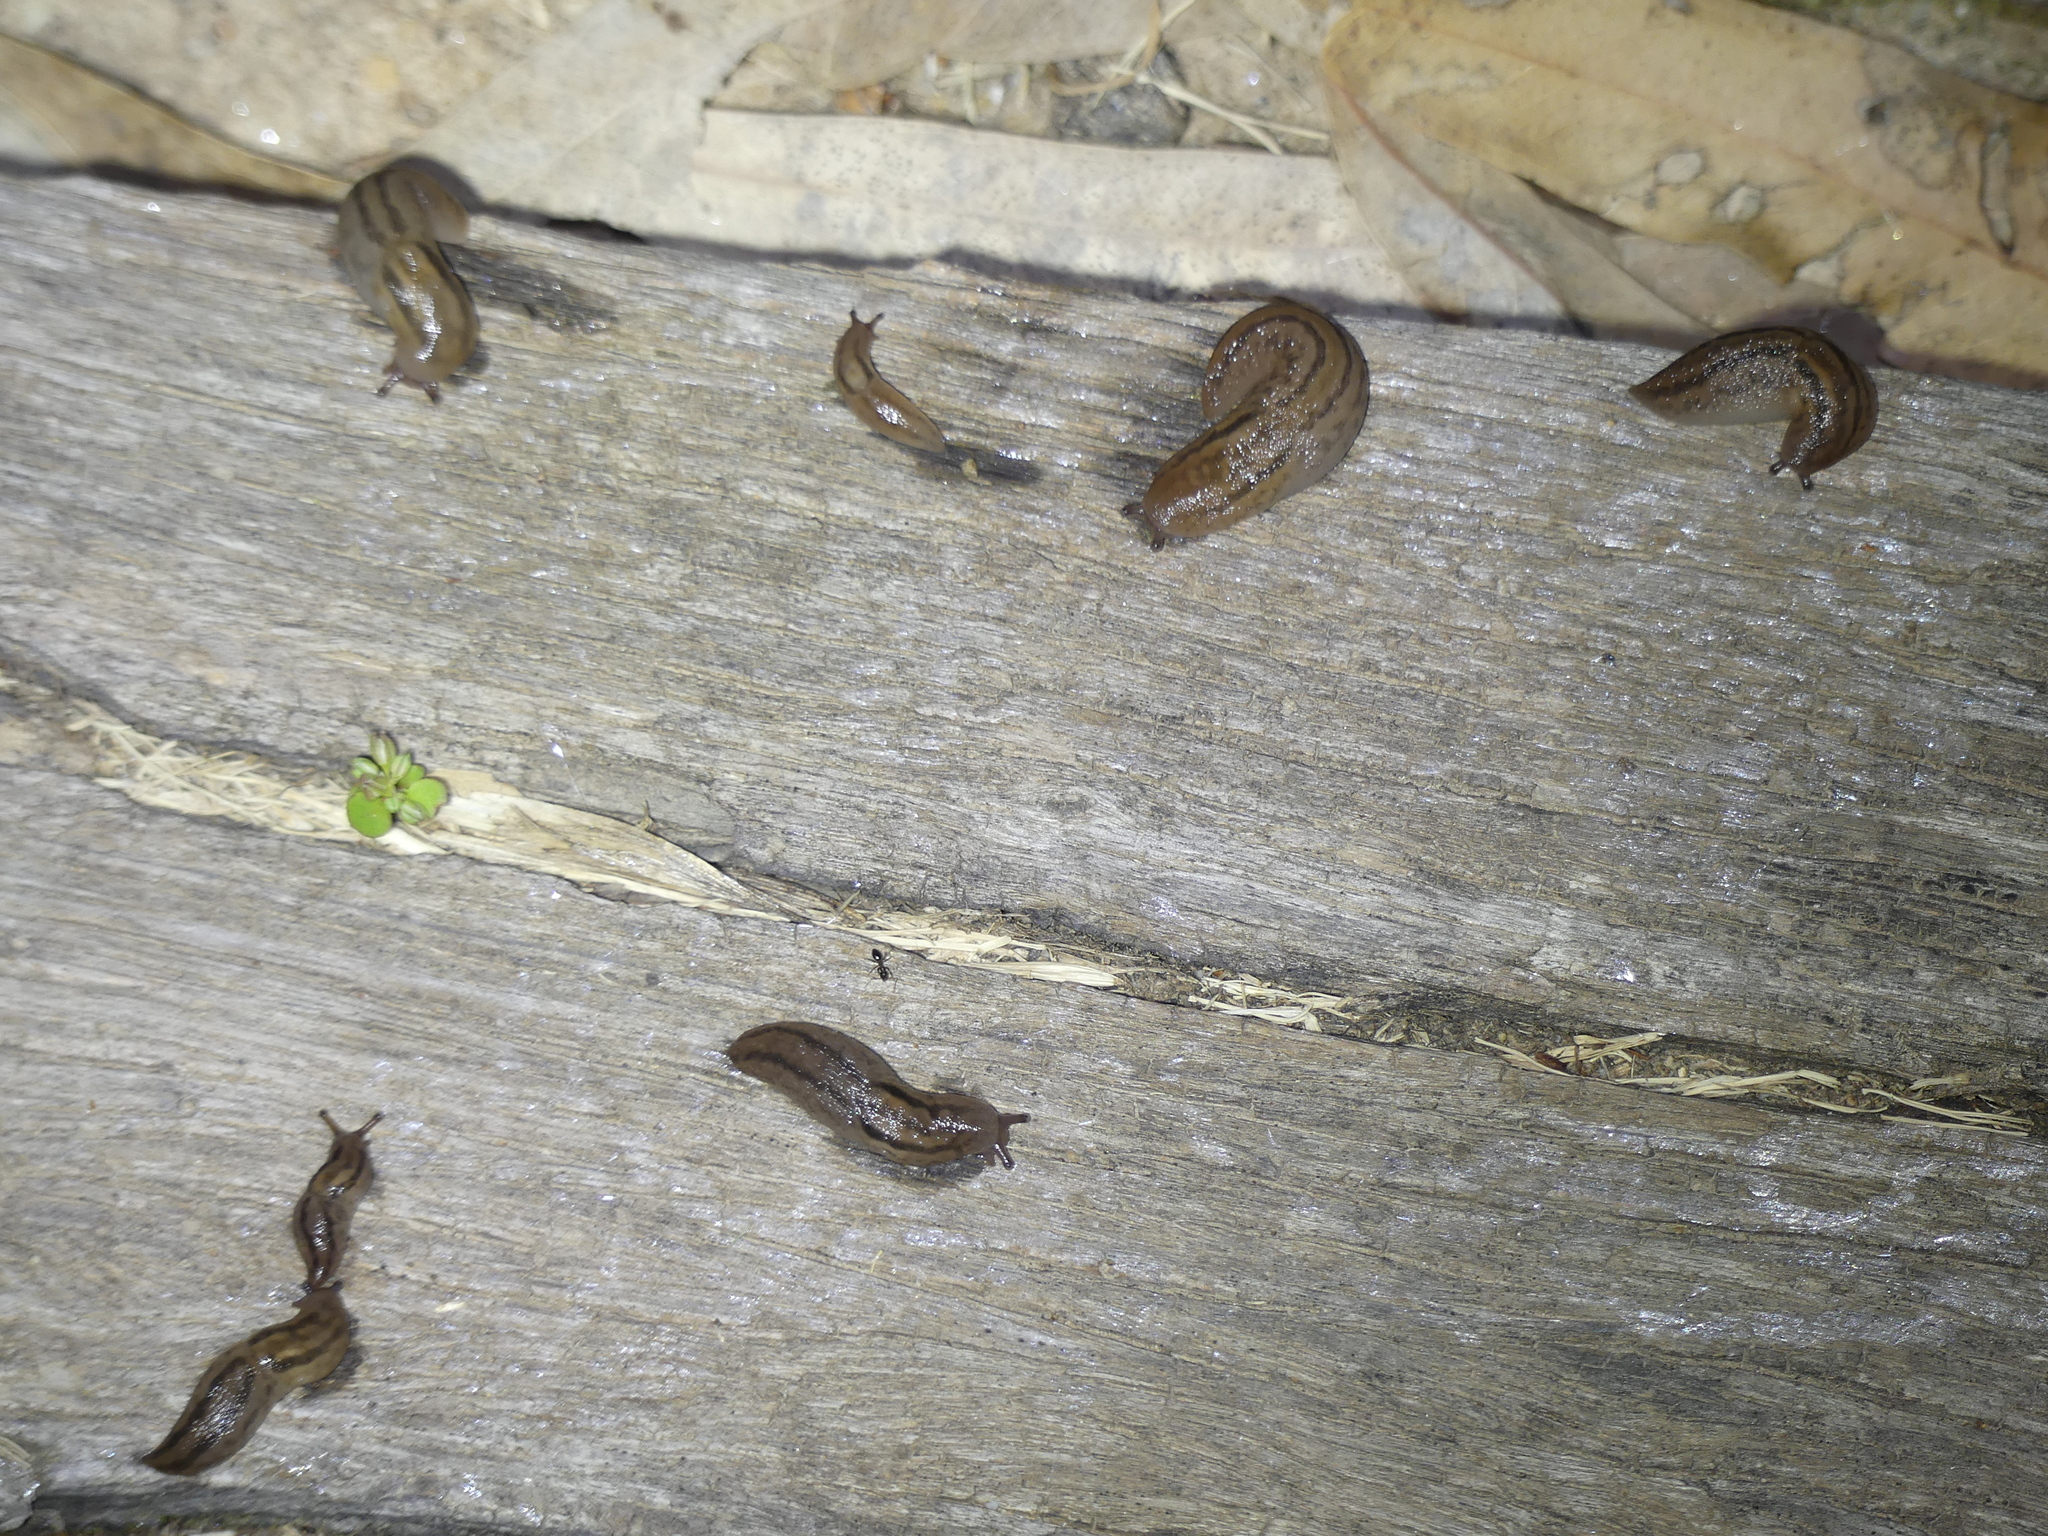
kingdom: Animalia
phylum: Mollusca
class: Gastropoda
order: Stylommatophora
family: Limacidae
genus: Ambigolimax
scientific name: Ambigolimax
